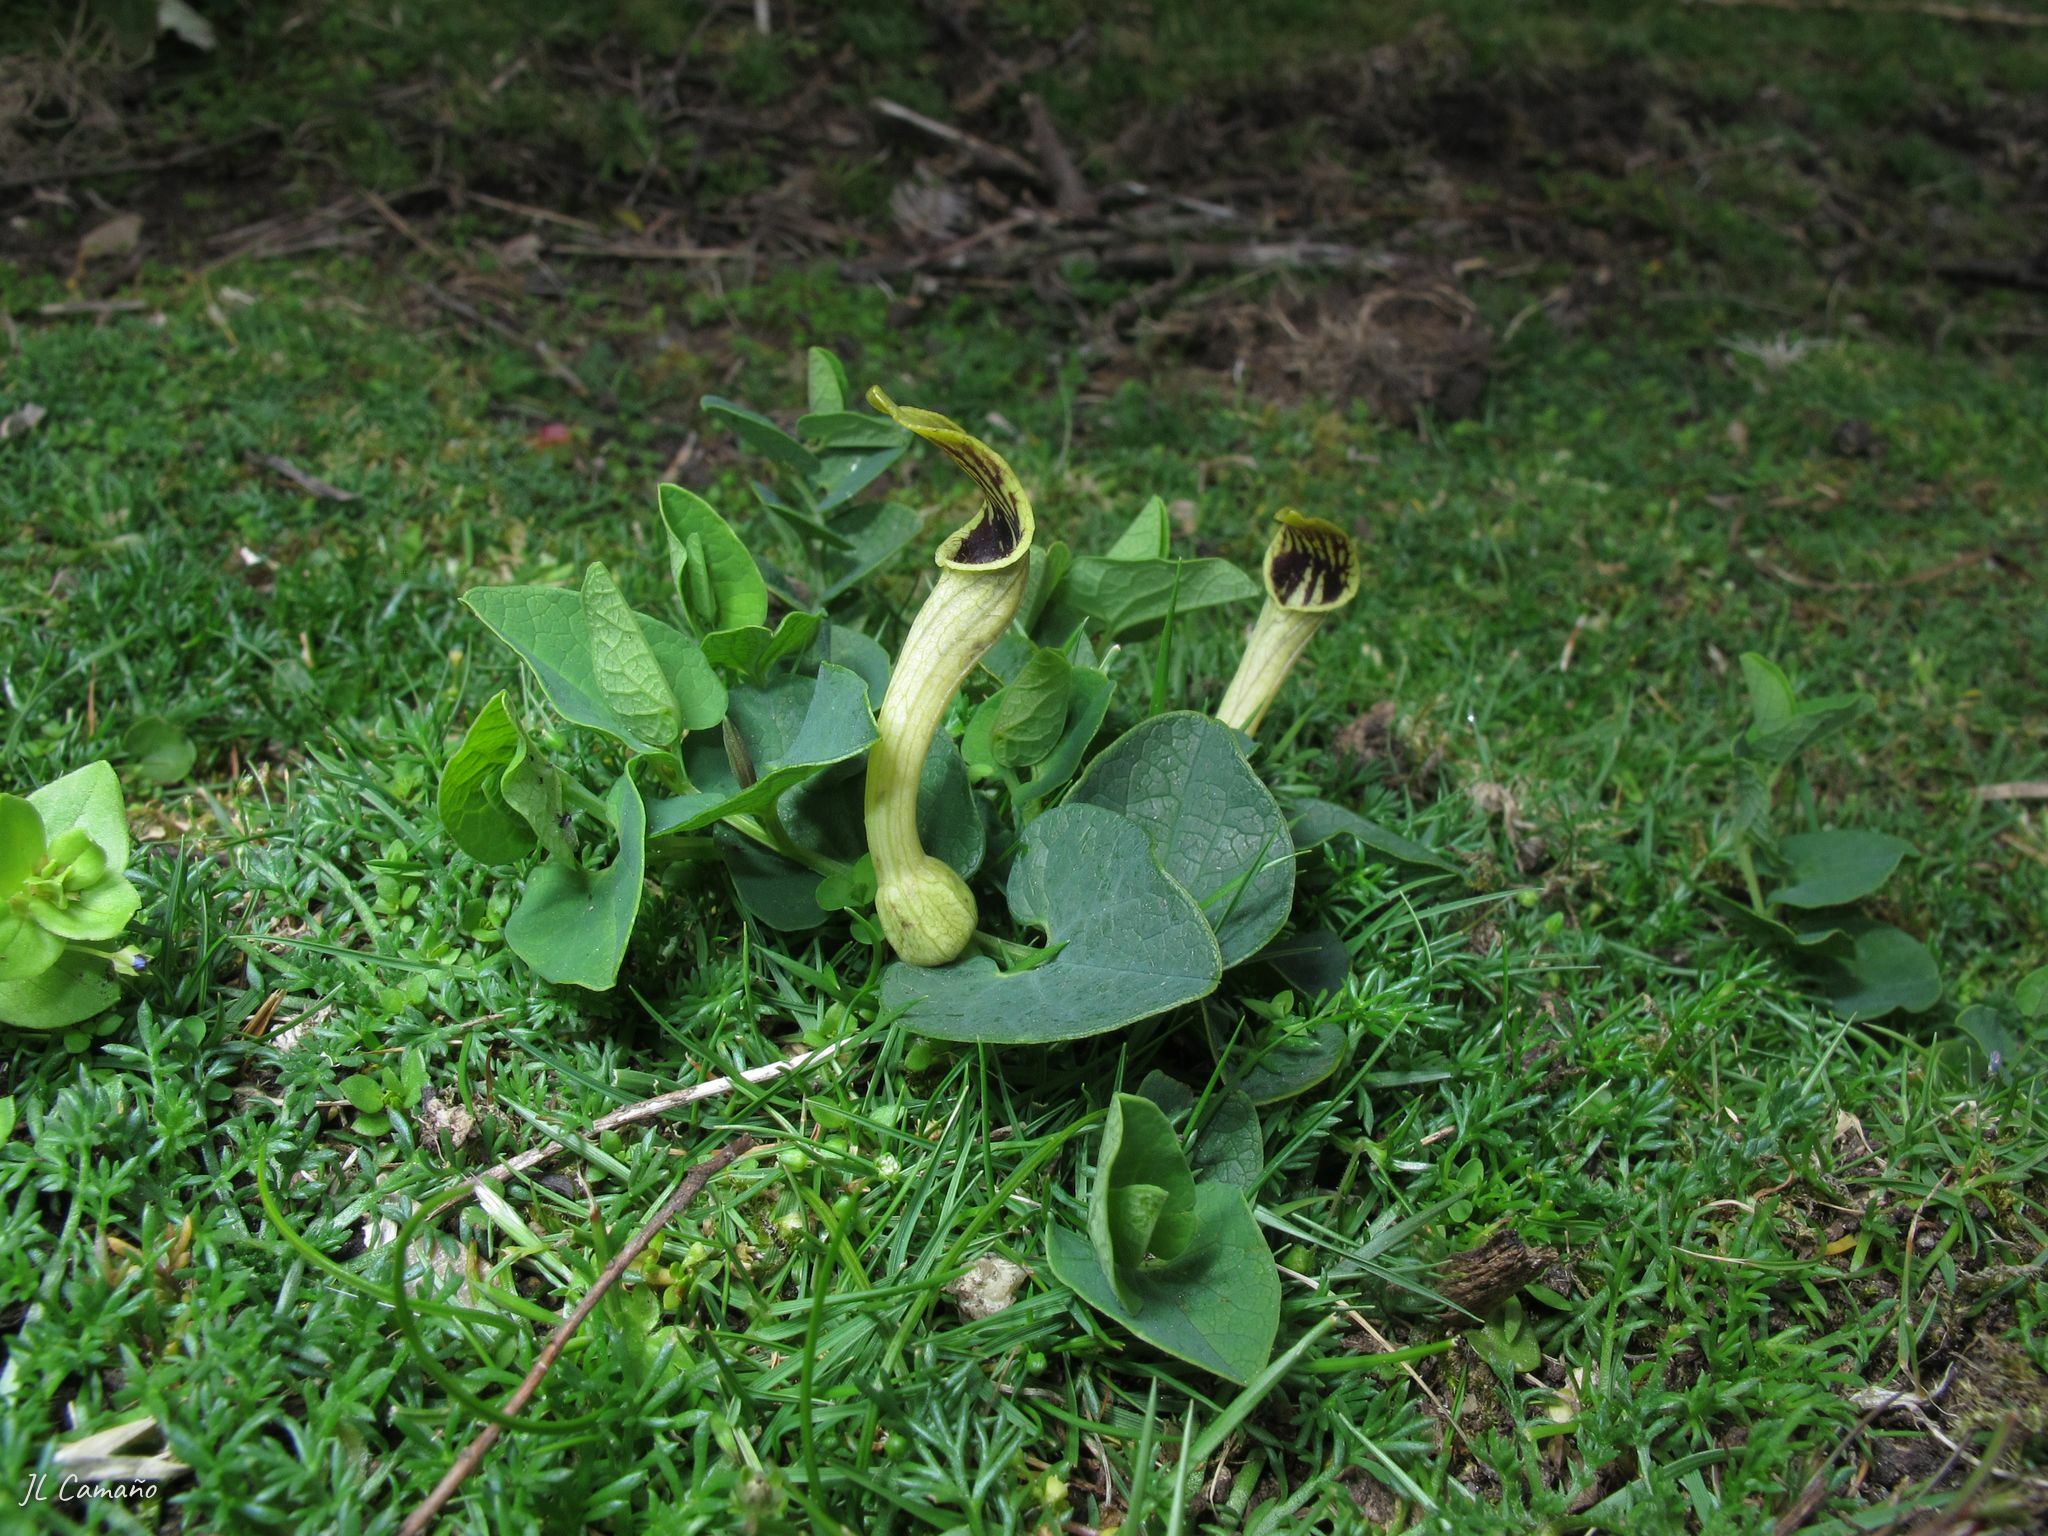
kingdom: Plantae
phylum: Tracheophyta
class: Magnoliopsida
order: Piperales
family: Aristolochiaceae
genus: Aristolochia
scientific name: Aristolochia paucinervis
